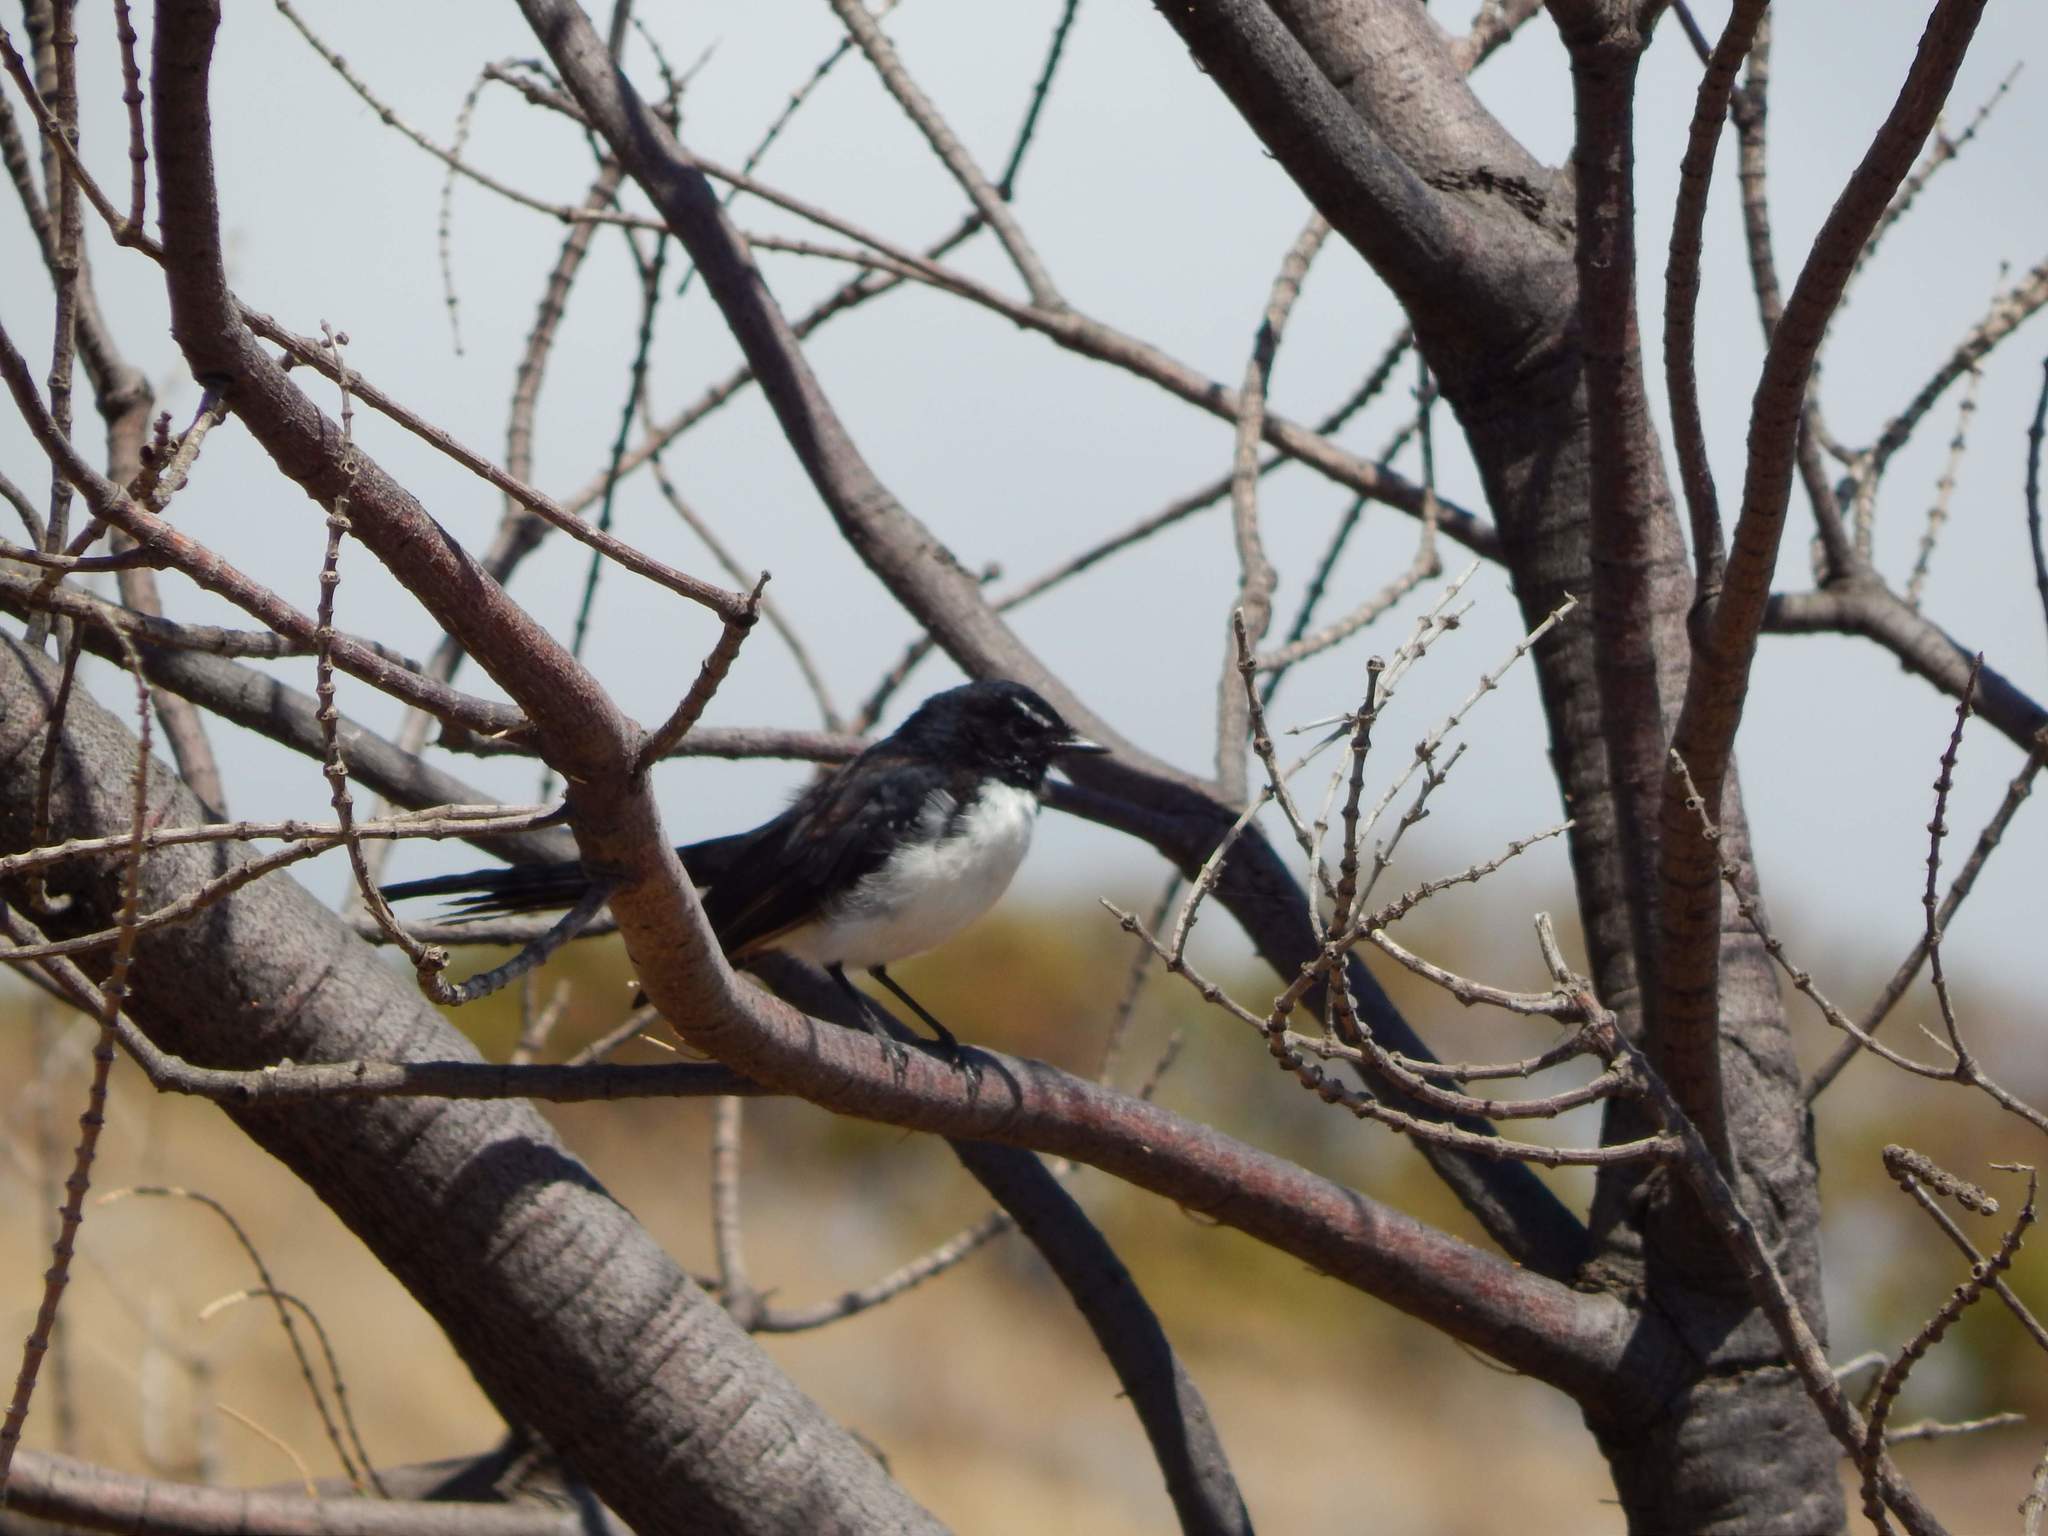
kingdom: Animalia
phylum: Chordata
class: Aves
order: Passeriformes
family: Rhipiduridae
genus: Rhipidura
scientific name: Rhipidura leucophrys
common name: Willie wagtail
